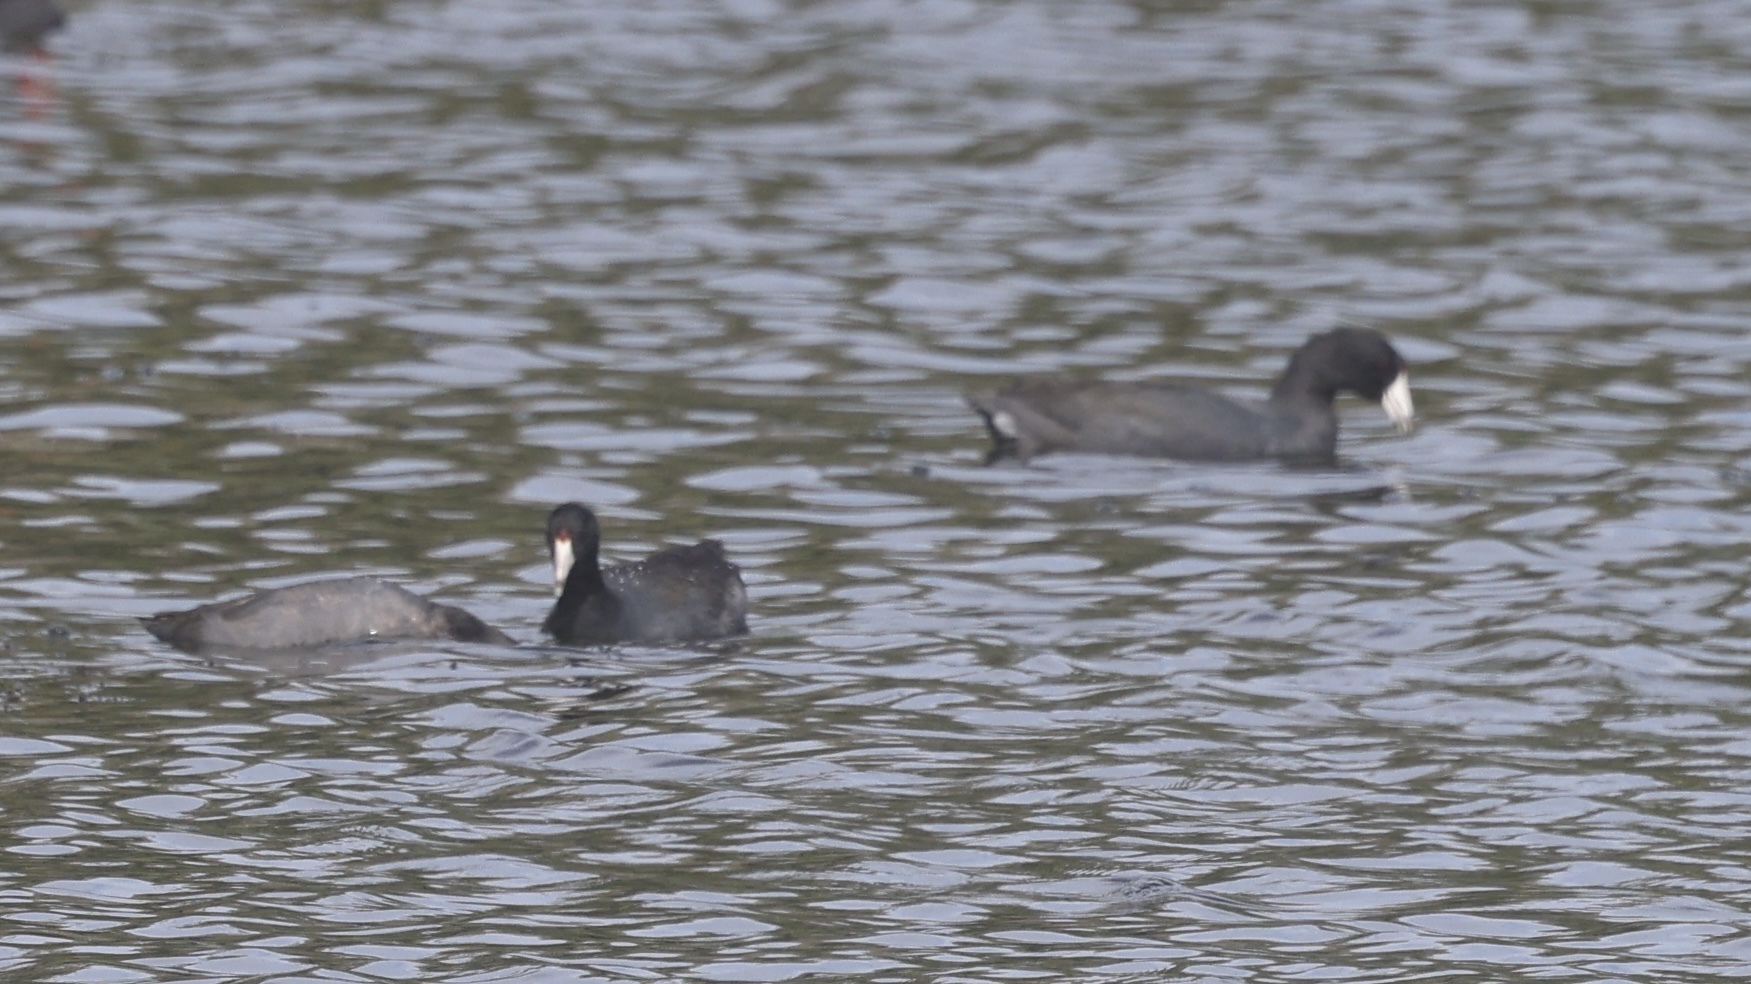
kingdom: Animalia
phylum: Chordata
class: Aves
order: Gruiformes
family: Rallidae
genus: Fulica
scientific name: Fulica americana
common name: American coot
